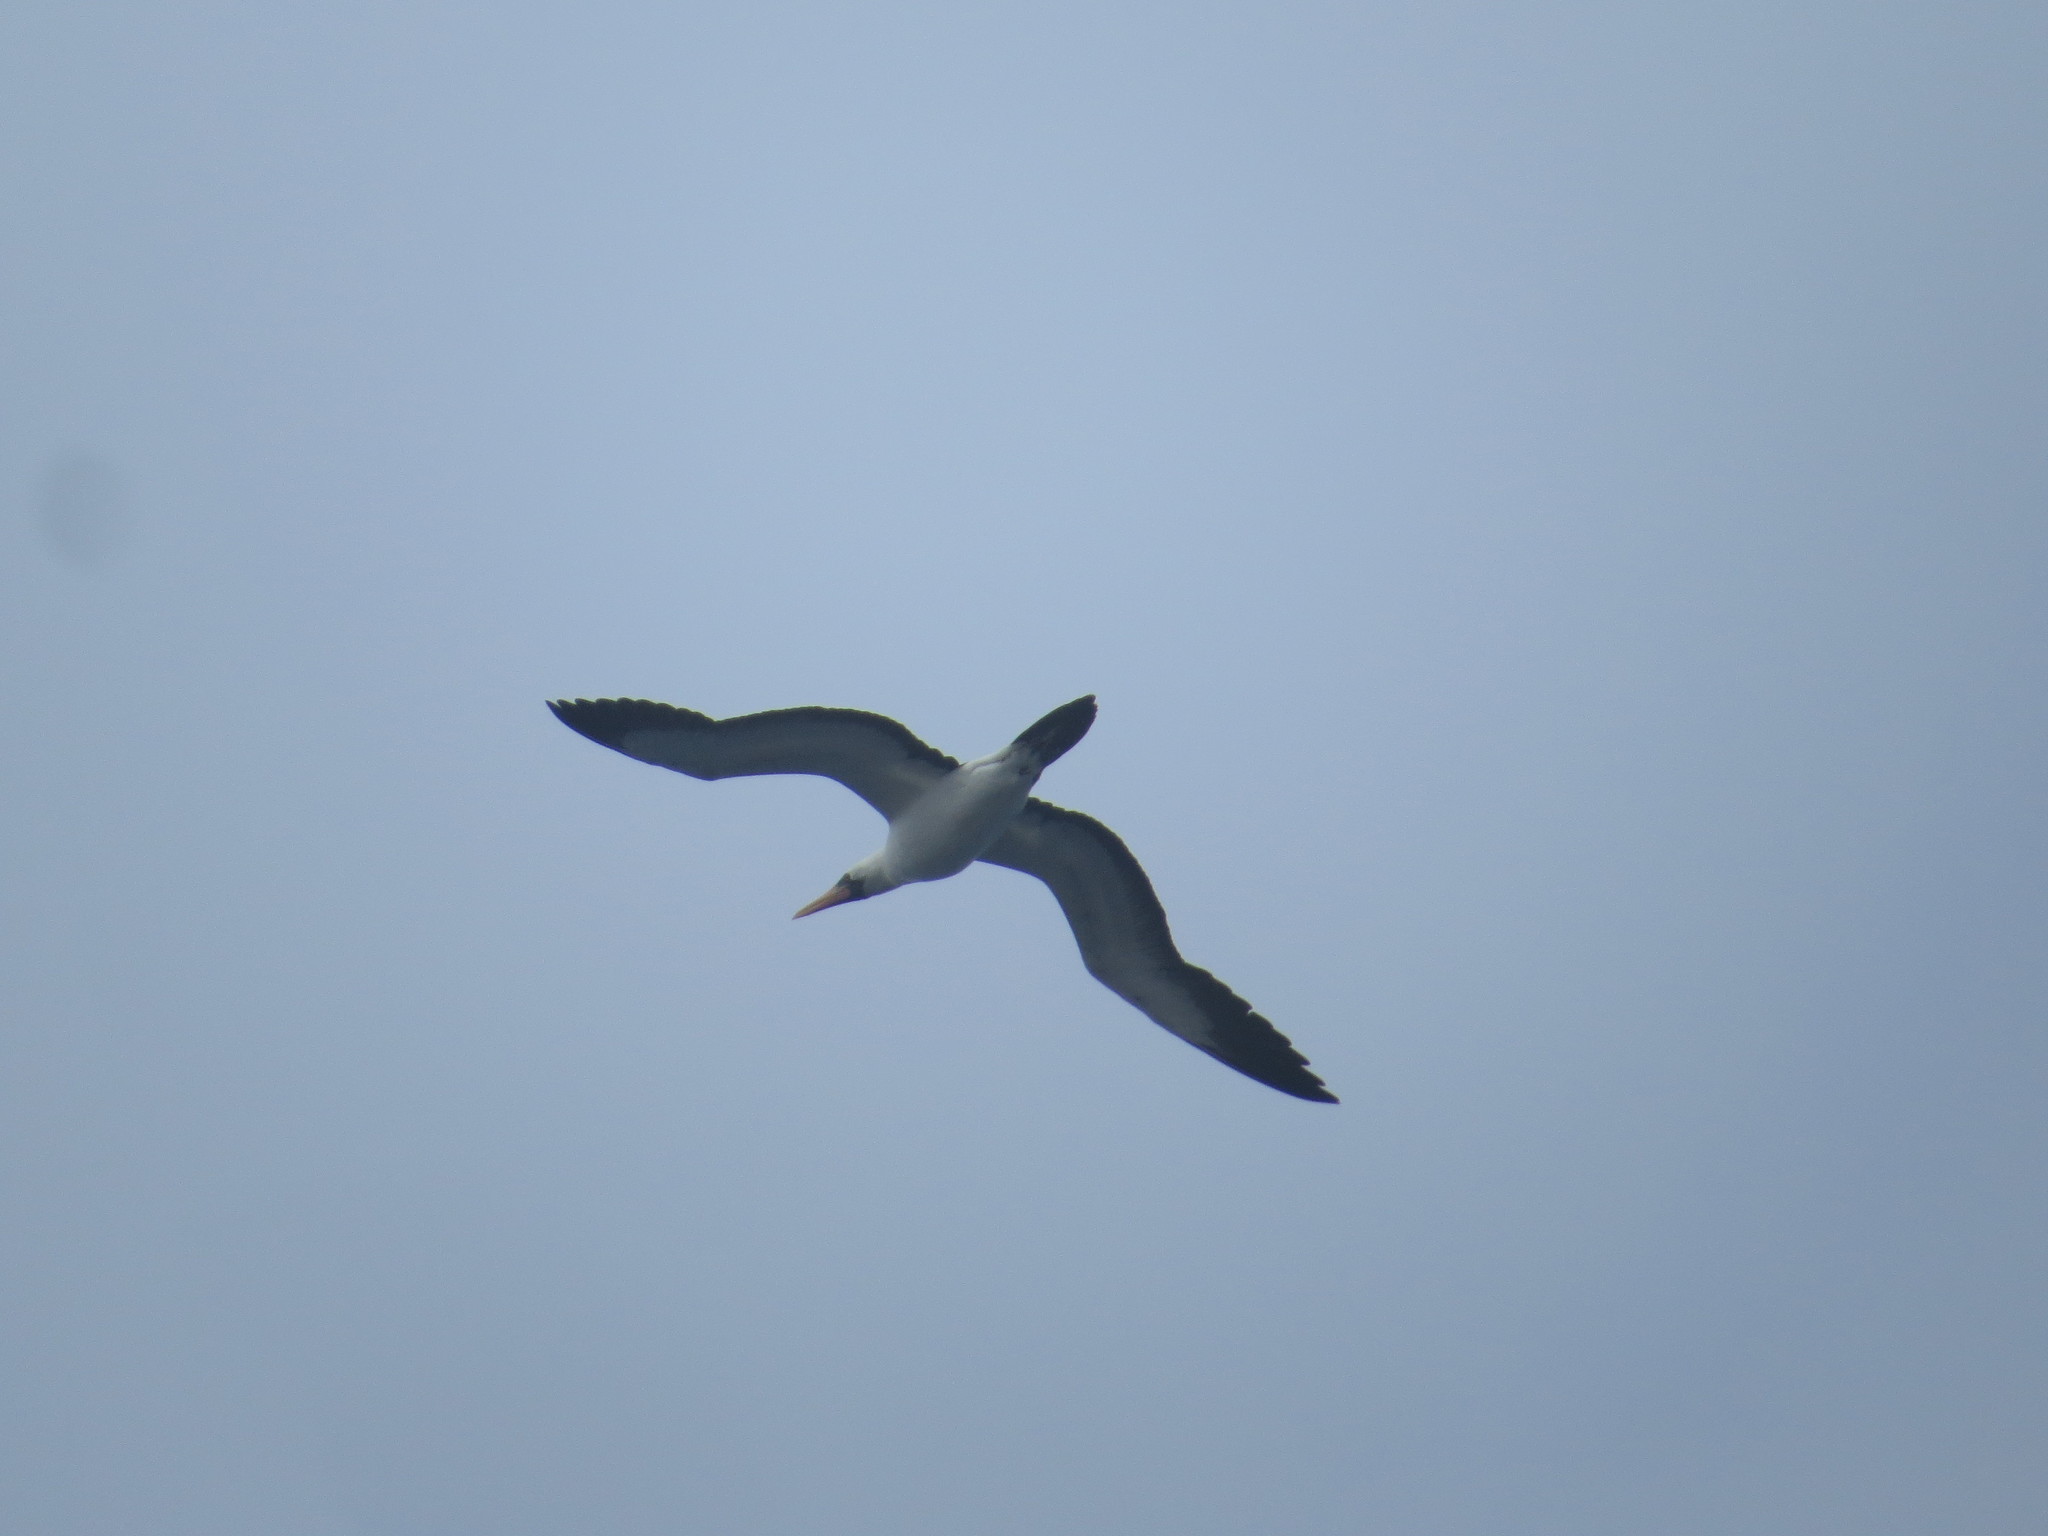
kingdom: Animalia
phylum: Chordata
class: Aves
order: Suliformes
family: Sulidae
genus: Sula
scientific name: Sula granti
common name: Nazca booby
